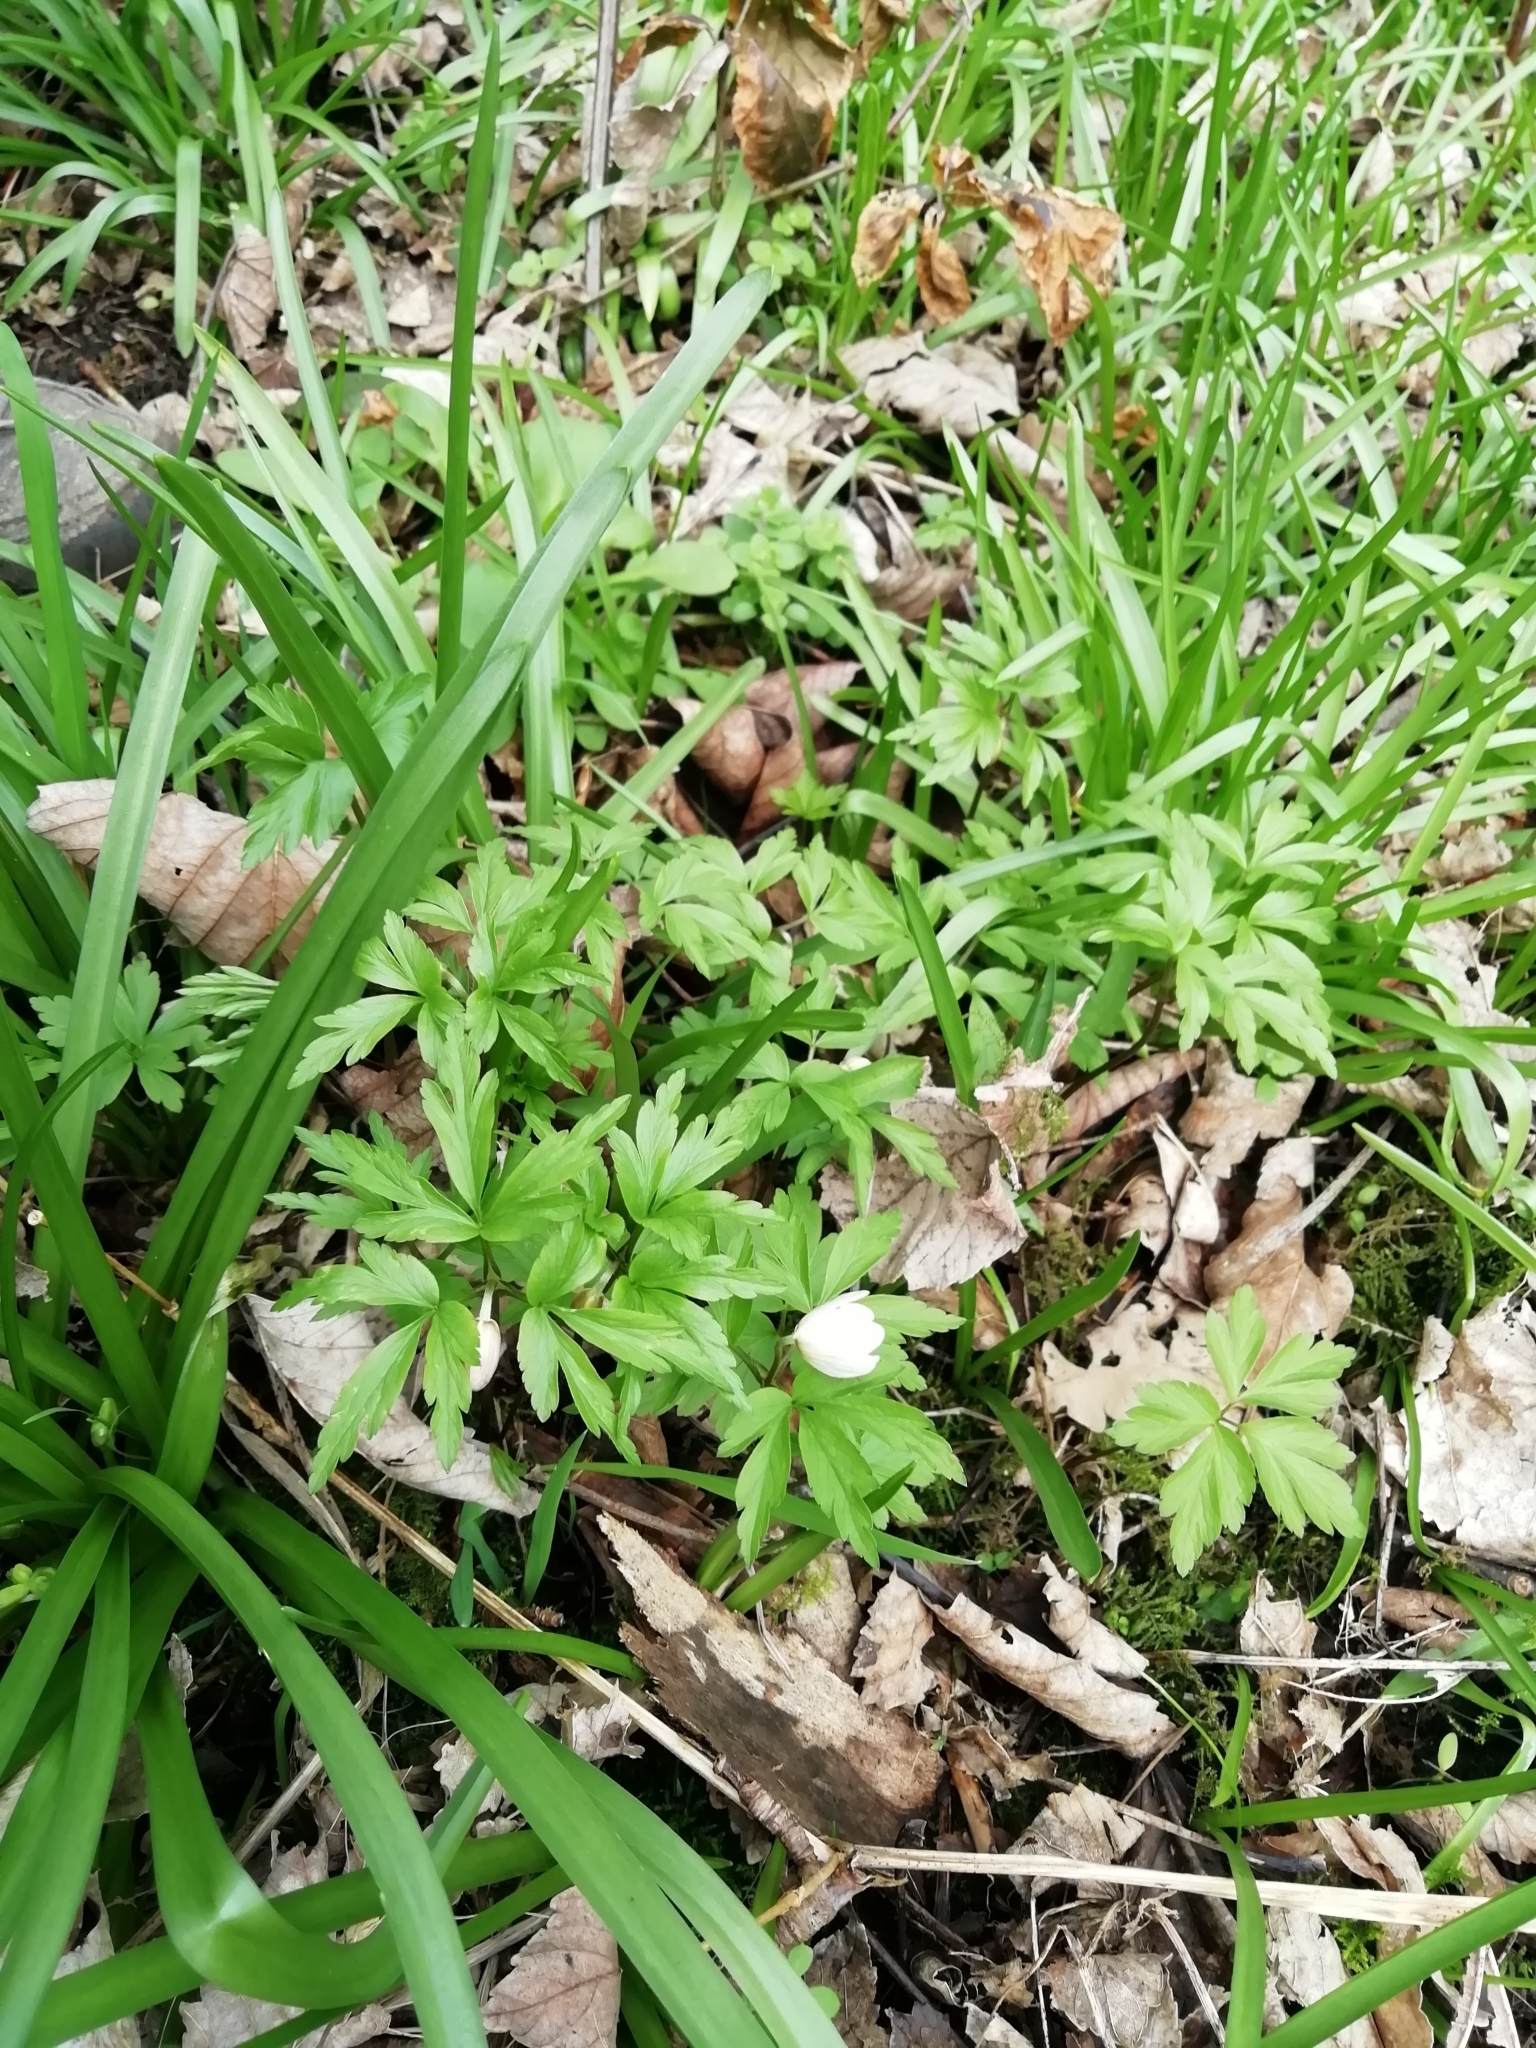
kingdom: Plantae
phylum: Tracheophyta
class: Magnoliopsida
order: Ranunculales
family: Ranunculaceae
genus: Anemone
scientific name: Anemone nemorosa
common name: Wood anemone
